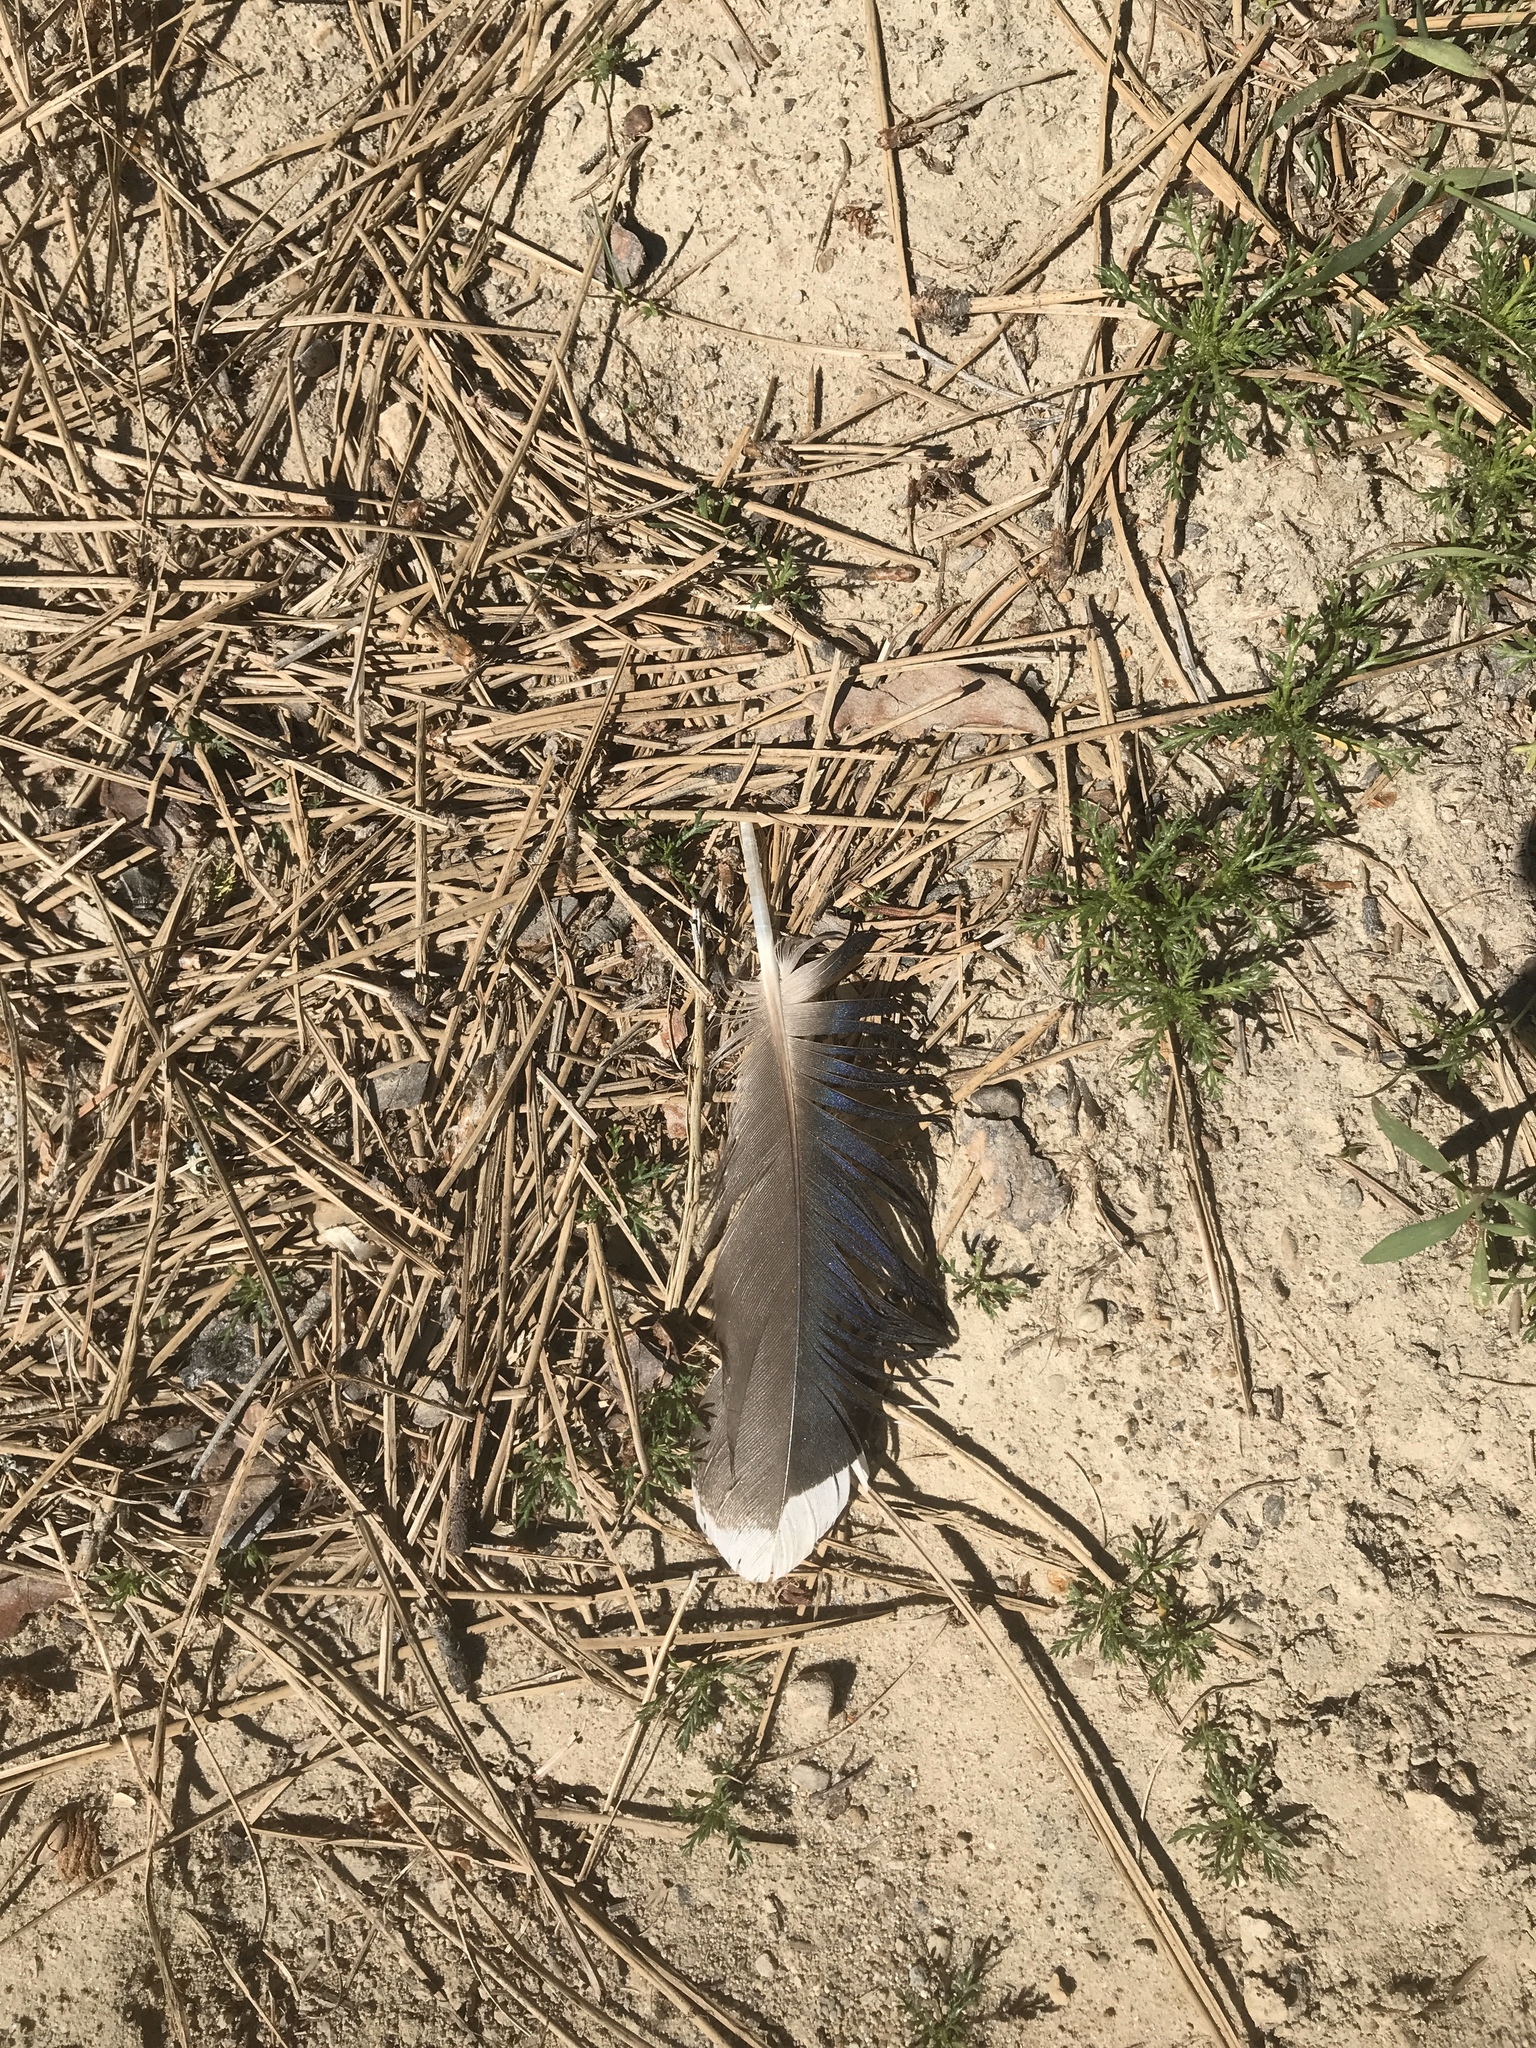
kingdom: Animalia
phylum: Chordata
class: Aves
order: Anseriformes
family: Anatidae
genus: Anas
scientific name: Anas platyrhynchos
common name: Mallard
